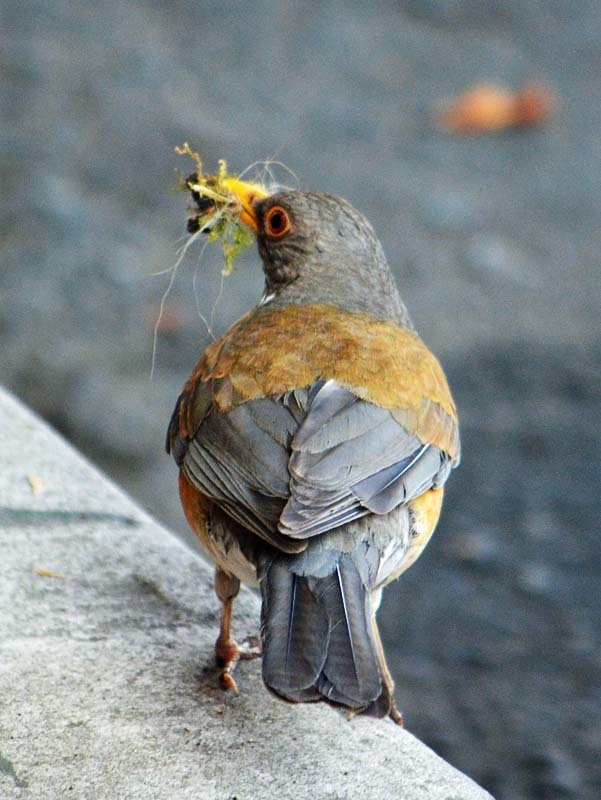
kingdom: Animalia
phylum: Chordata
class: Aves
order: Passeriformes
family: Turdidae
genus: Turdus
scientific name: Turdus rufopalliatus
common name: Rufous-backed robin
